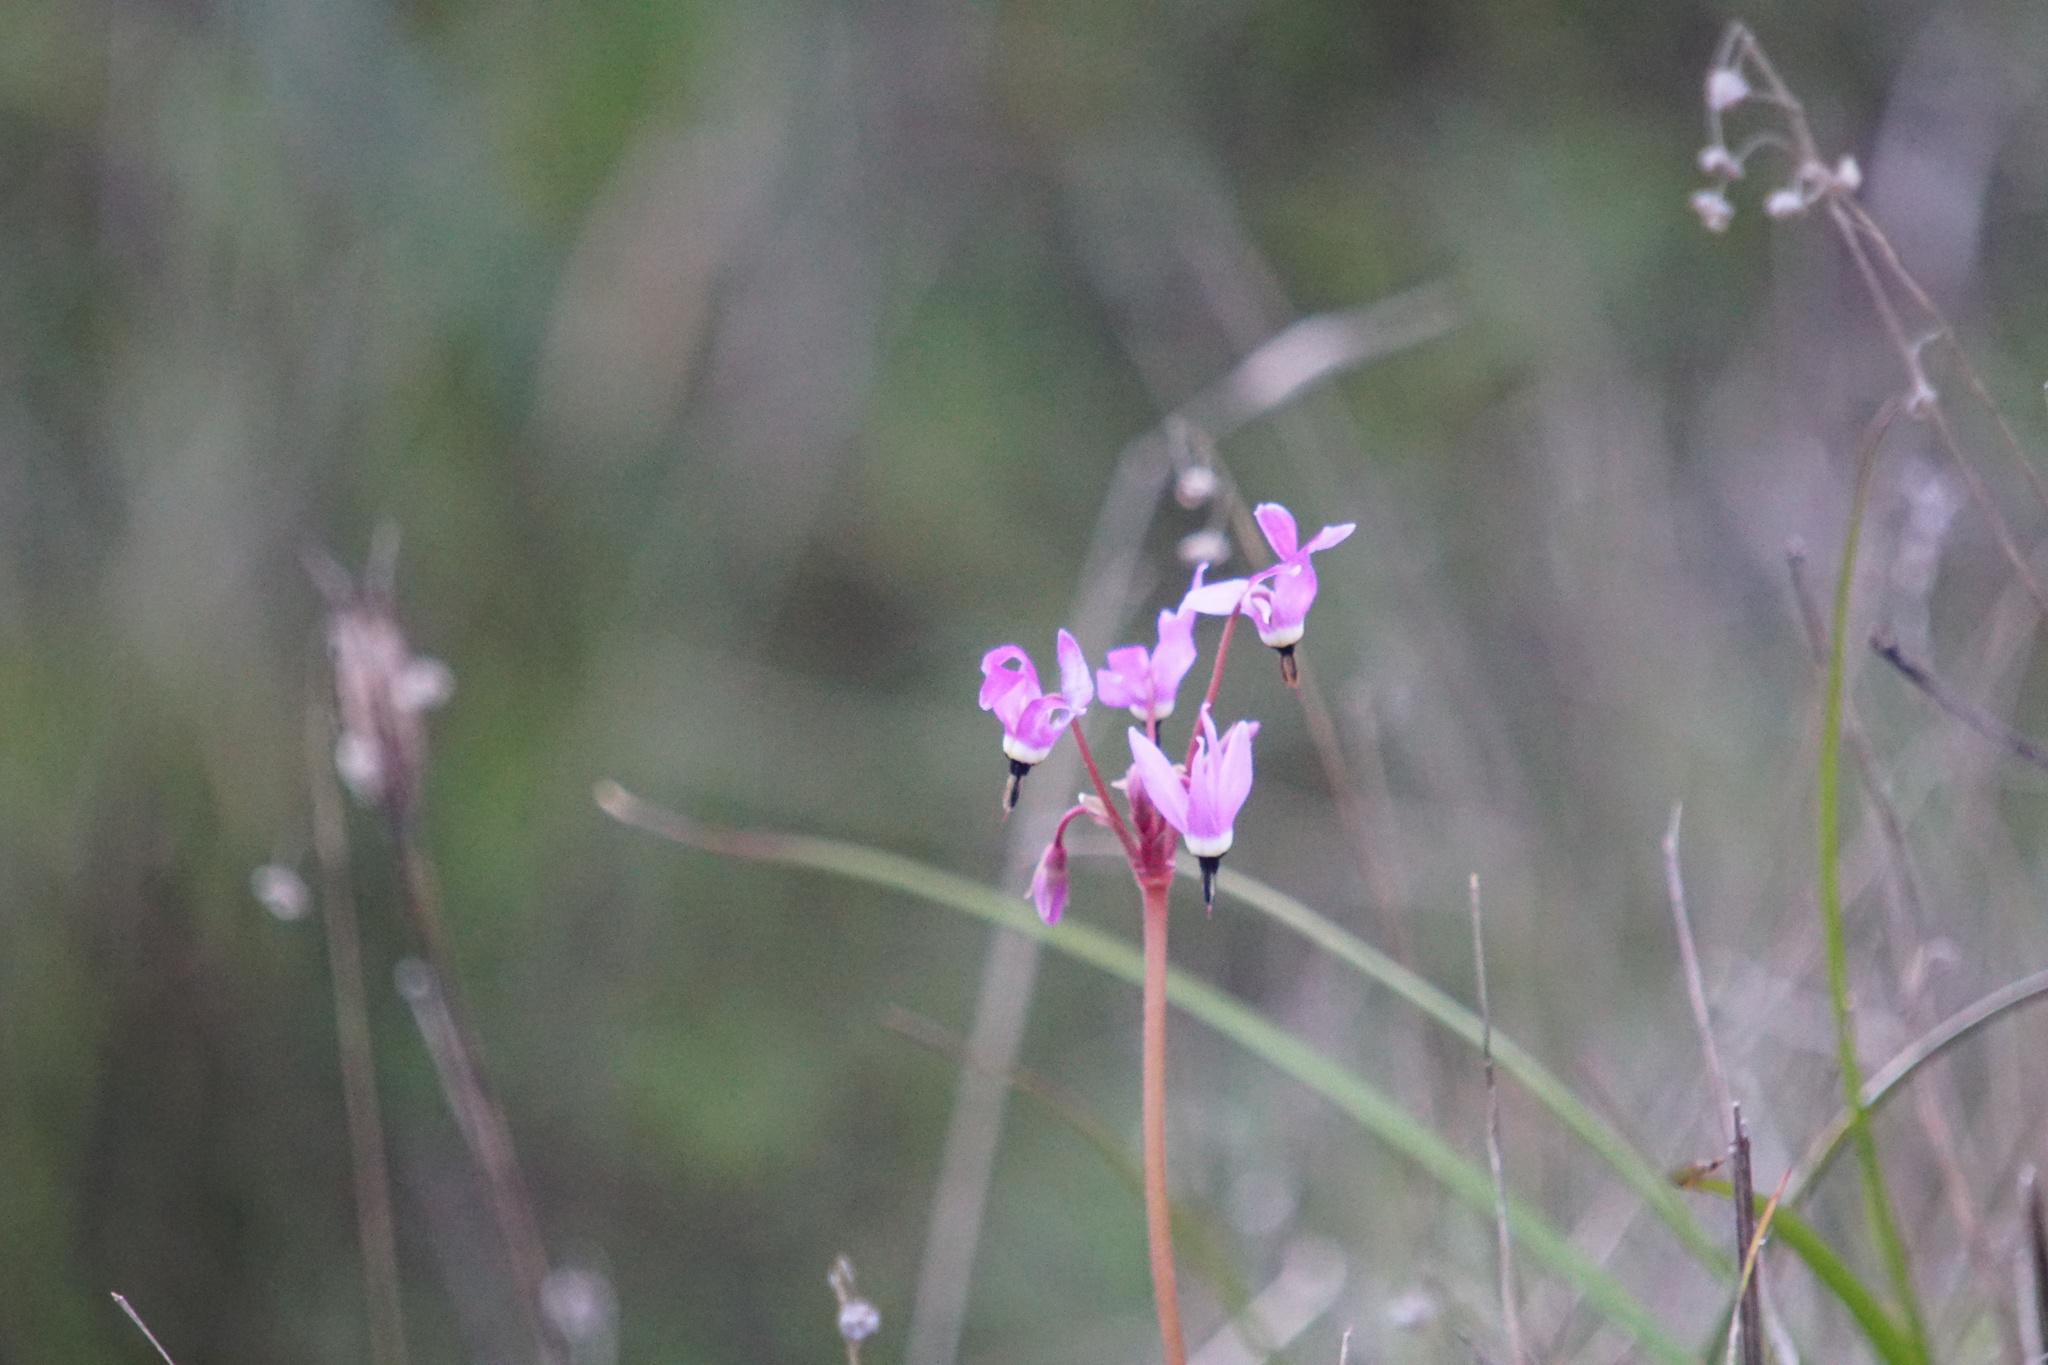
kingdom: Plantae
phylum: Tracheophyta
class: Magnoliopsida
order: Ericales
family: Primulaceae
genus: Dodecatheon
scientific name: Dodecatheon hendersonii
